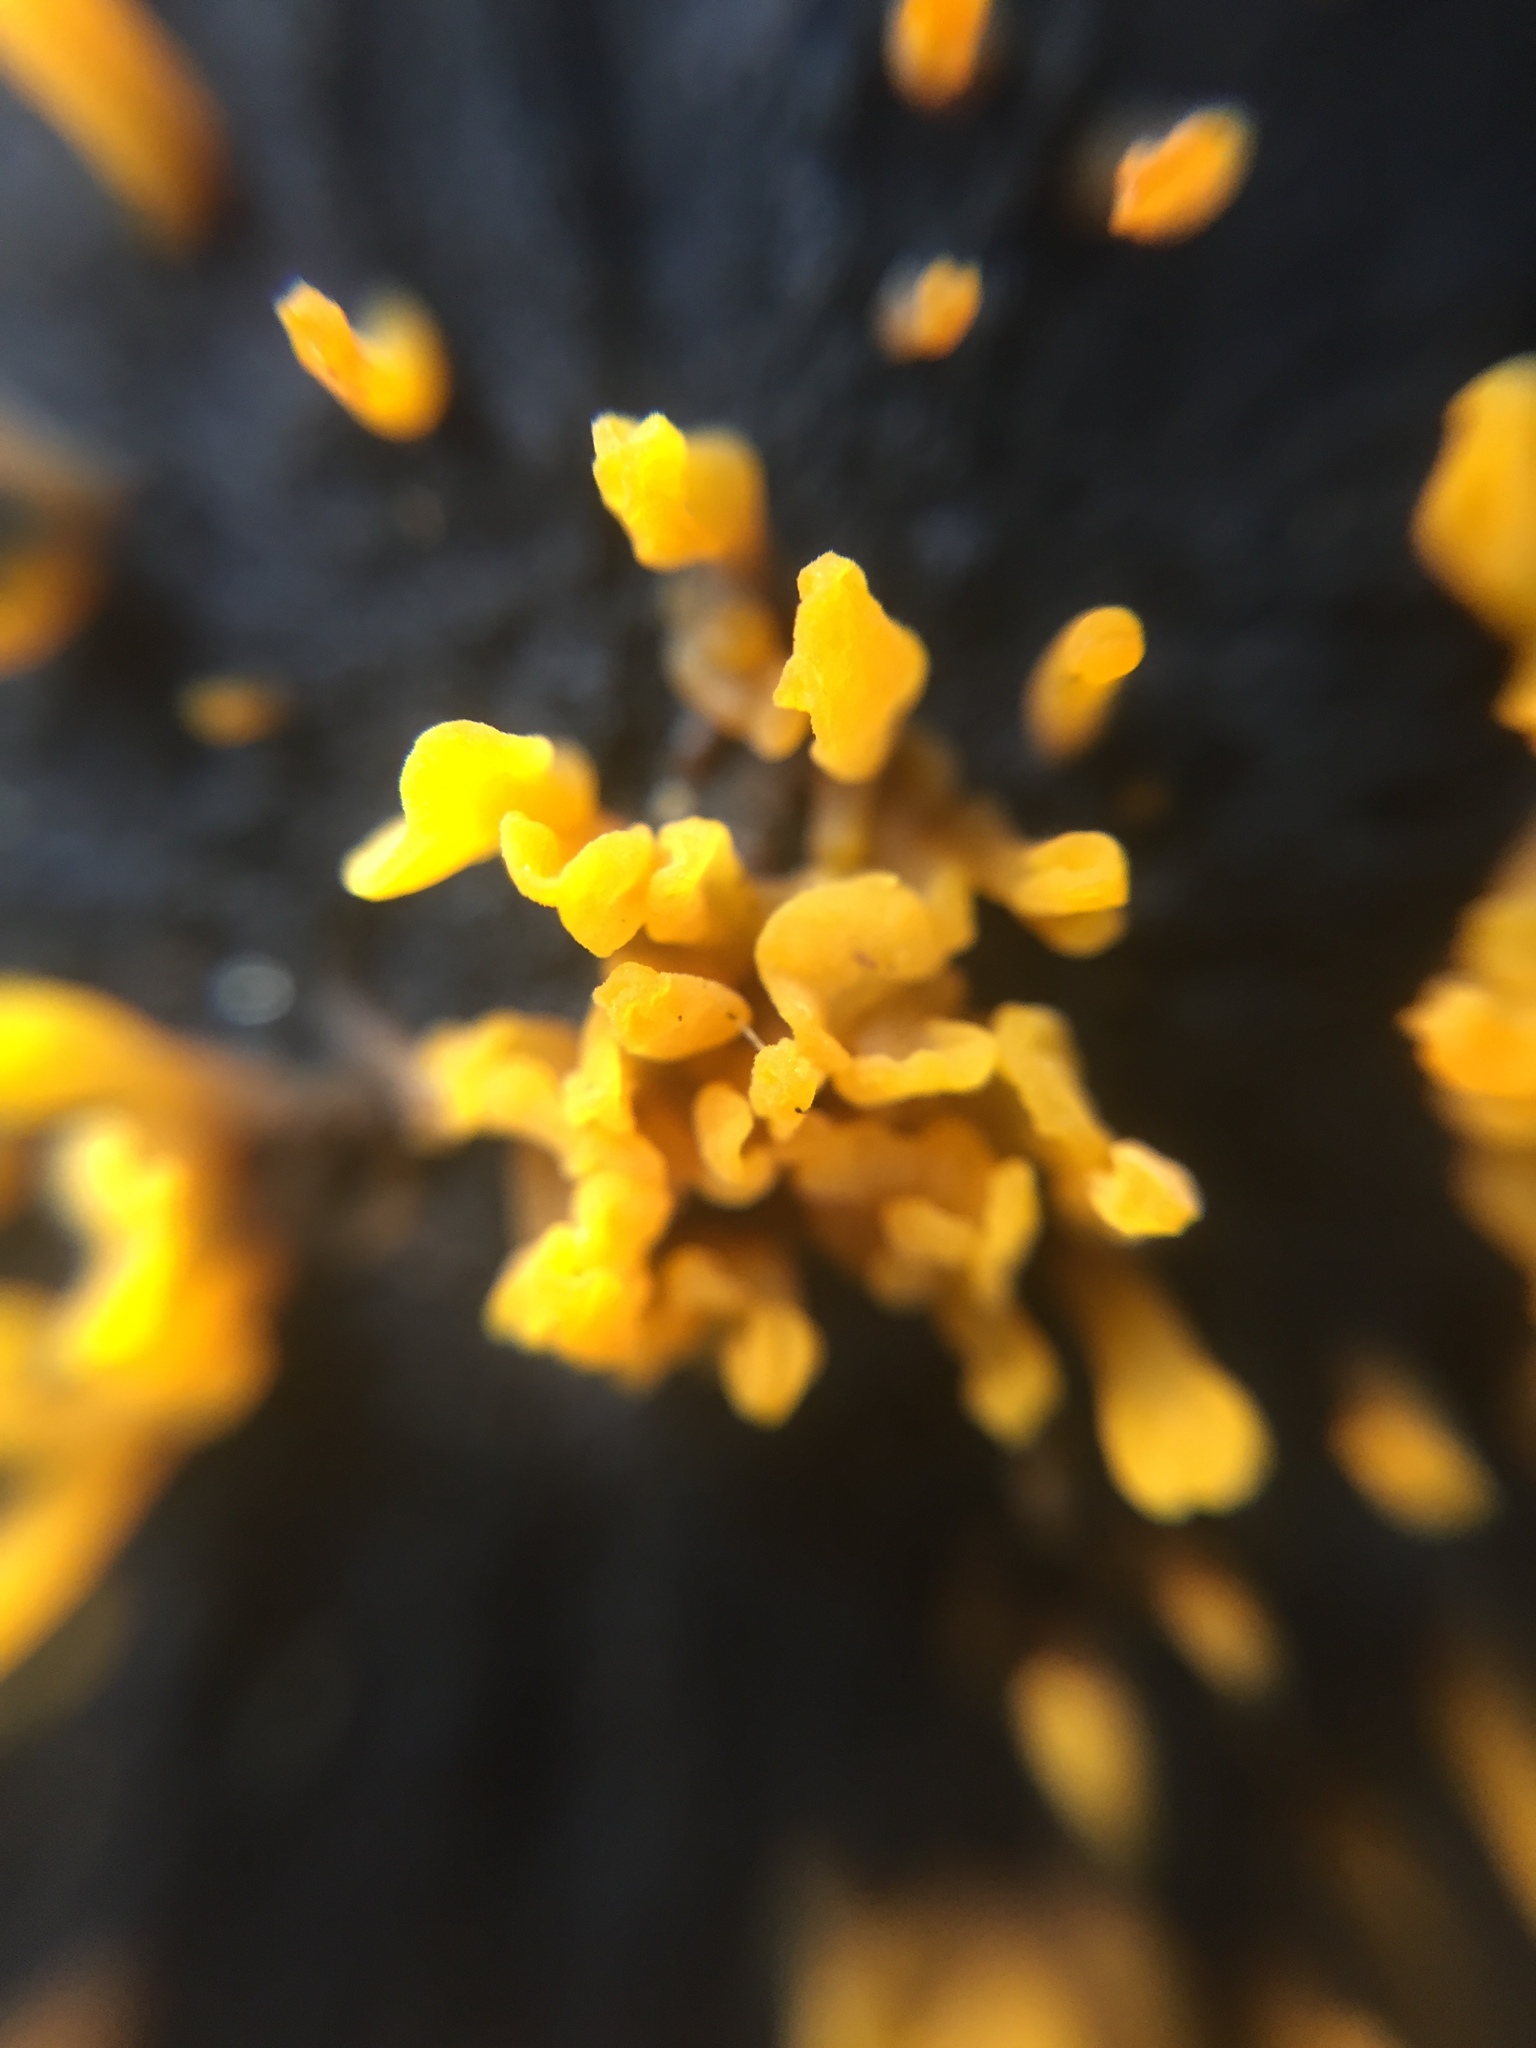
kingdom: Fungi
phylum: Basidiomycota
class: Dacrymycetes
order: Dacrymycetales
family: Dacrymycetaceae
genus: Dacrymyces
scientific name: Dacrymyces spathularius
